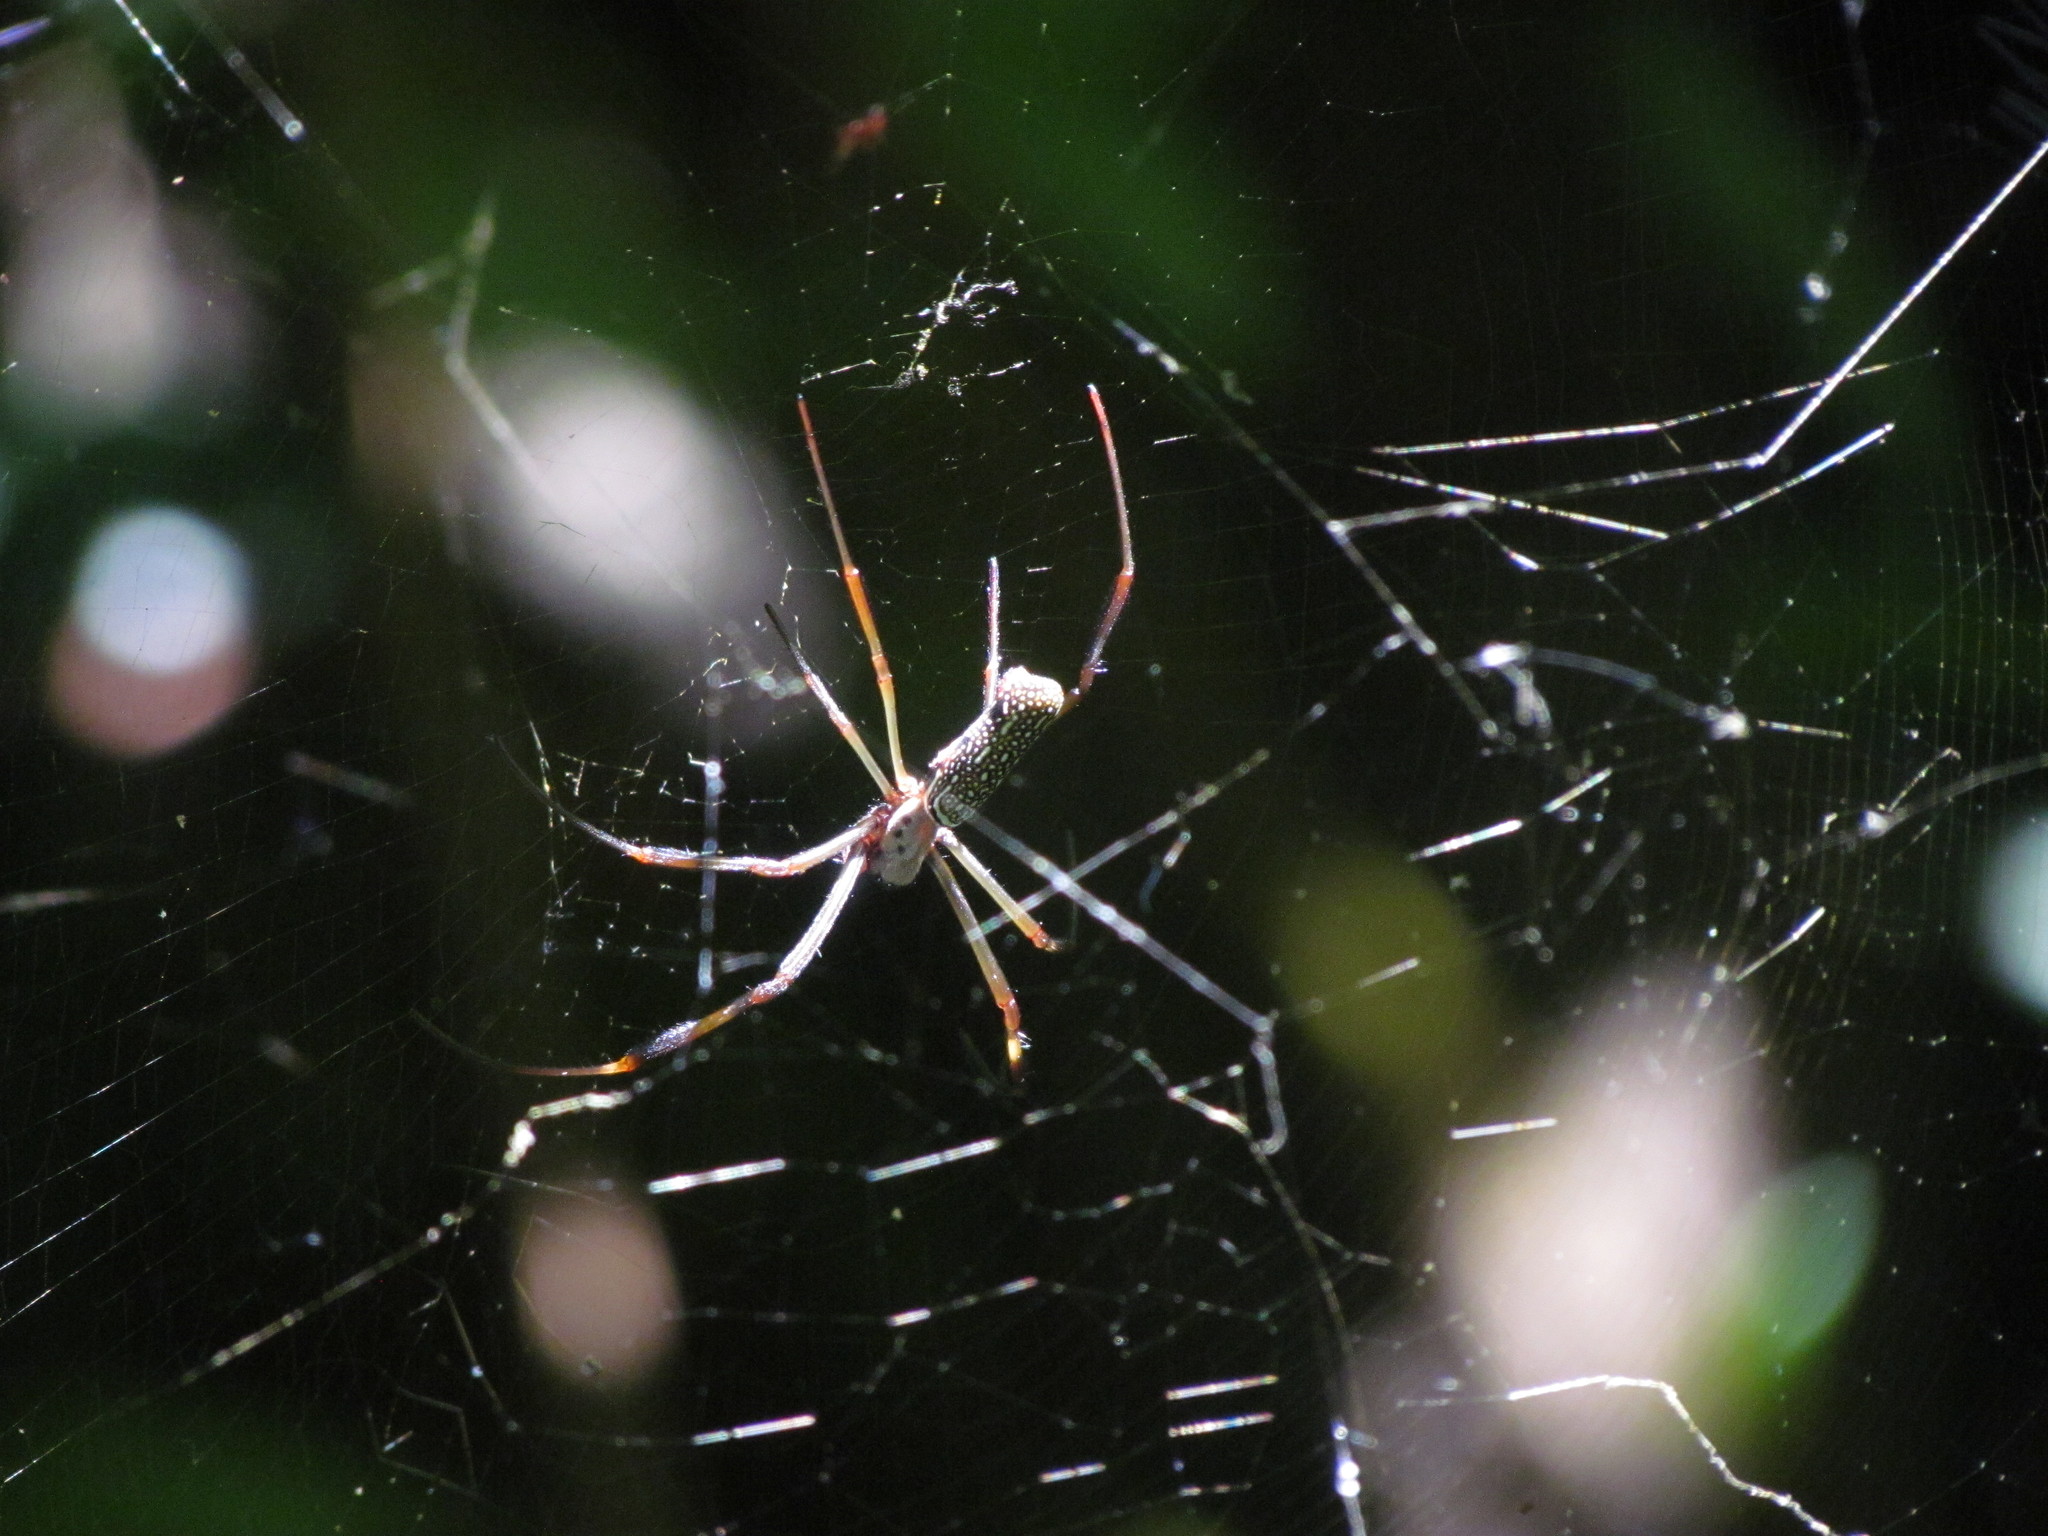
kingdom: Animalia
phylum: Arthropoda
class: Arachnida
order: Araneae
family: Araneidae
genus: Trichonephila
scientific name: Trichonephila clavipes
